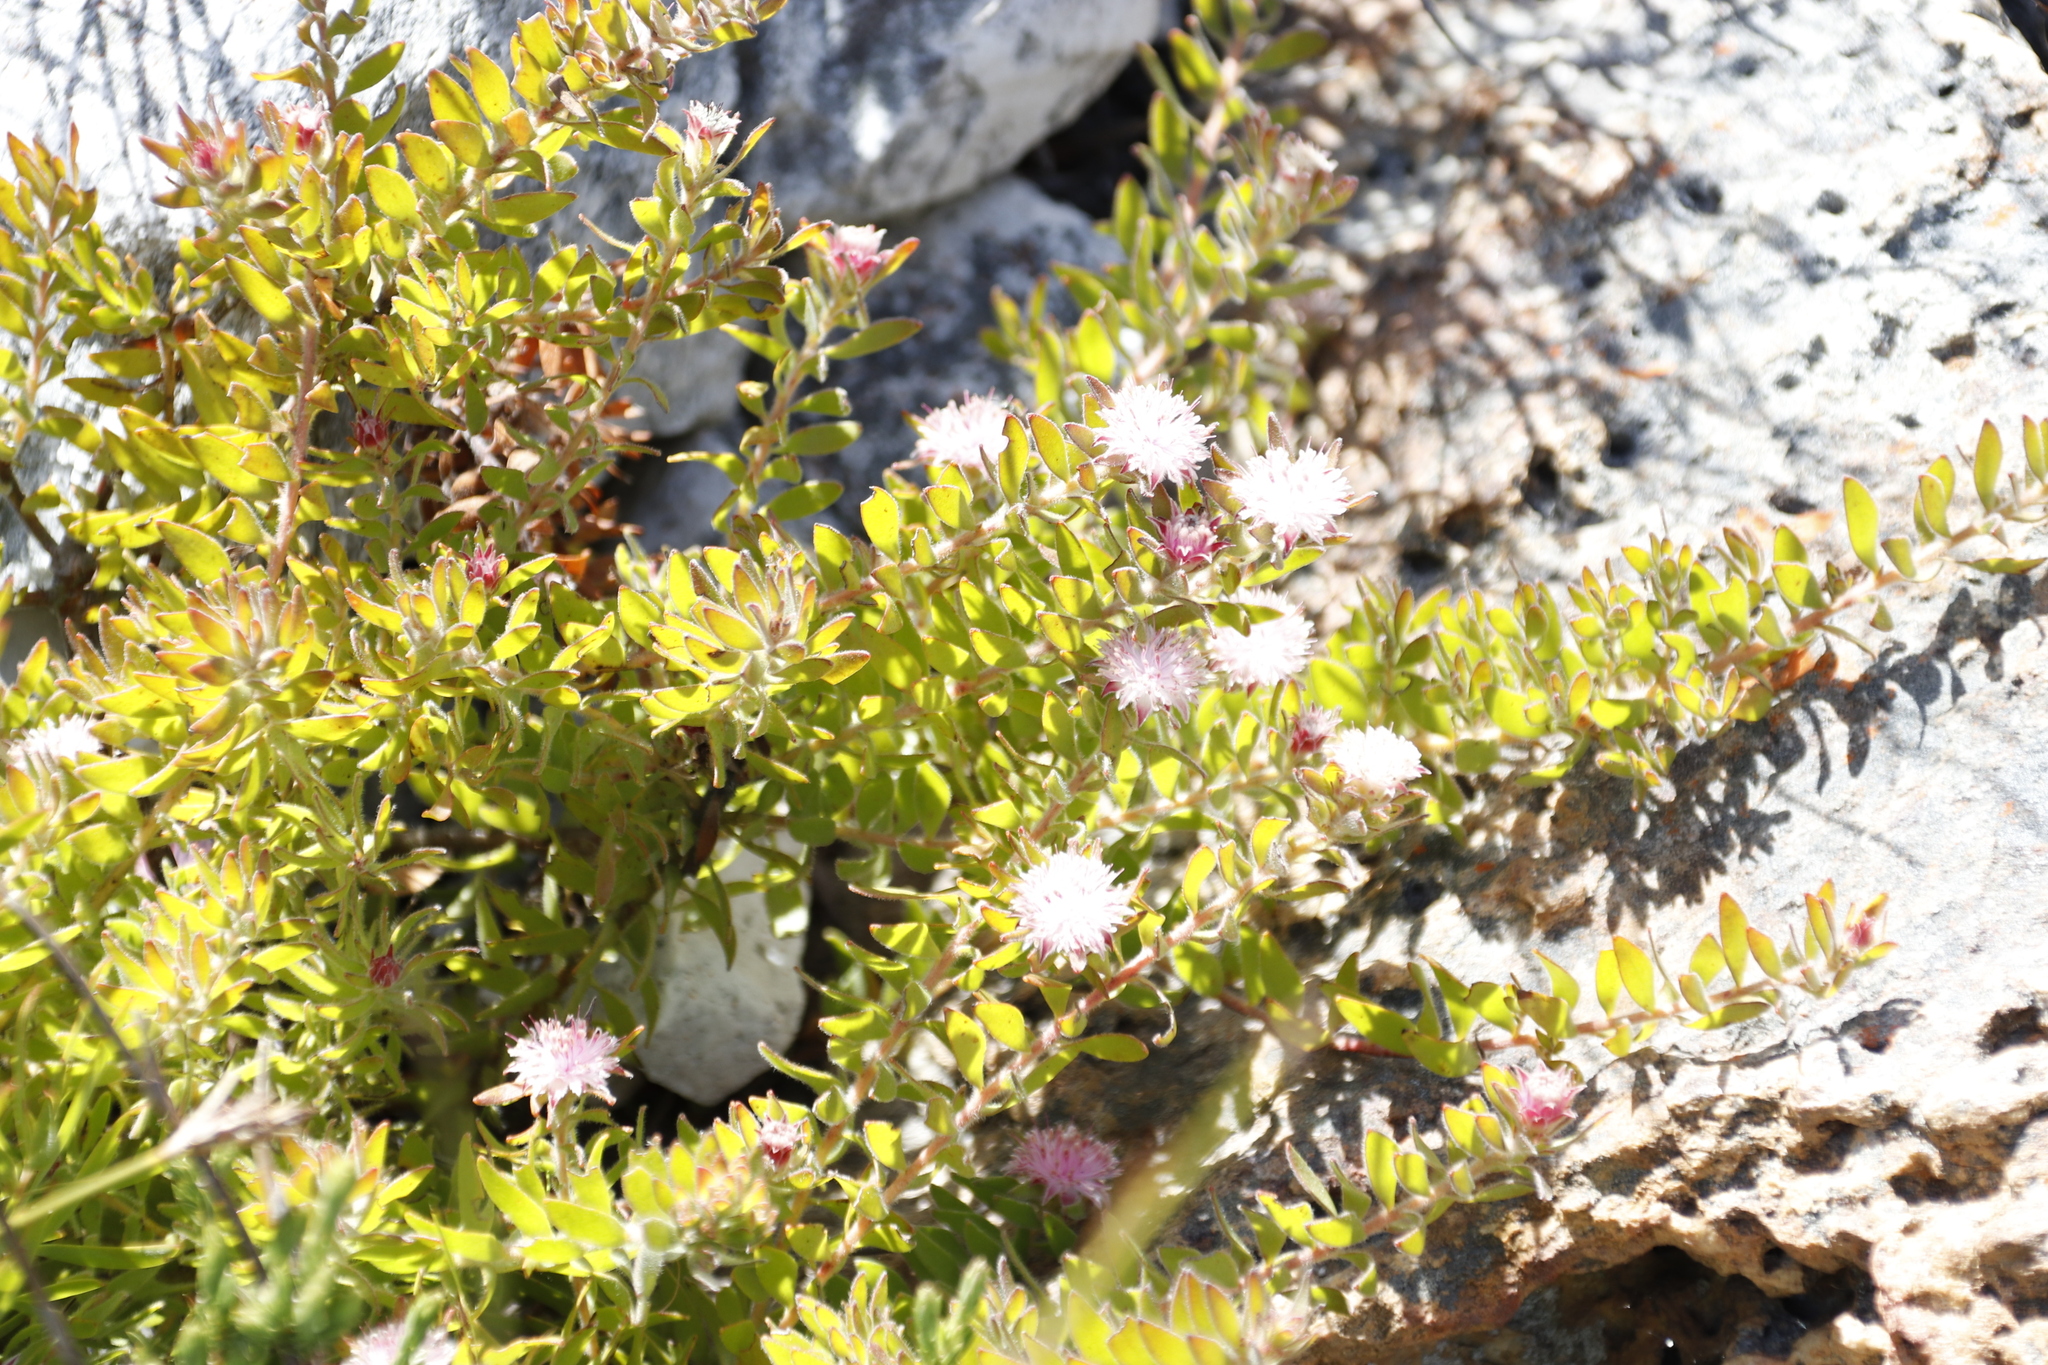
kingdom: Plantae
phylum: Tracheophyta
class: Magnoliopsida
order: Proteales
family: Proteaceae
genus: Diastella
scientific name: Diastella divaricata
